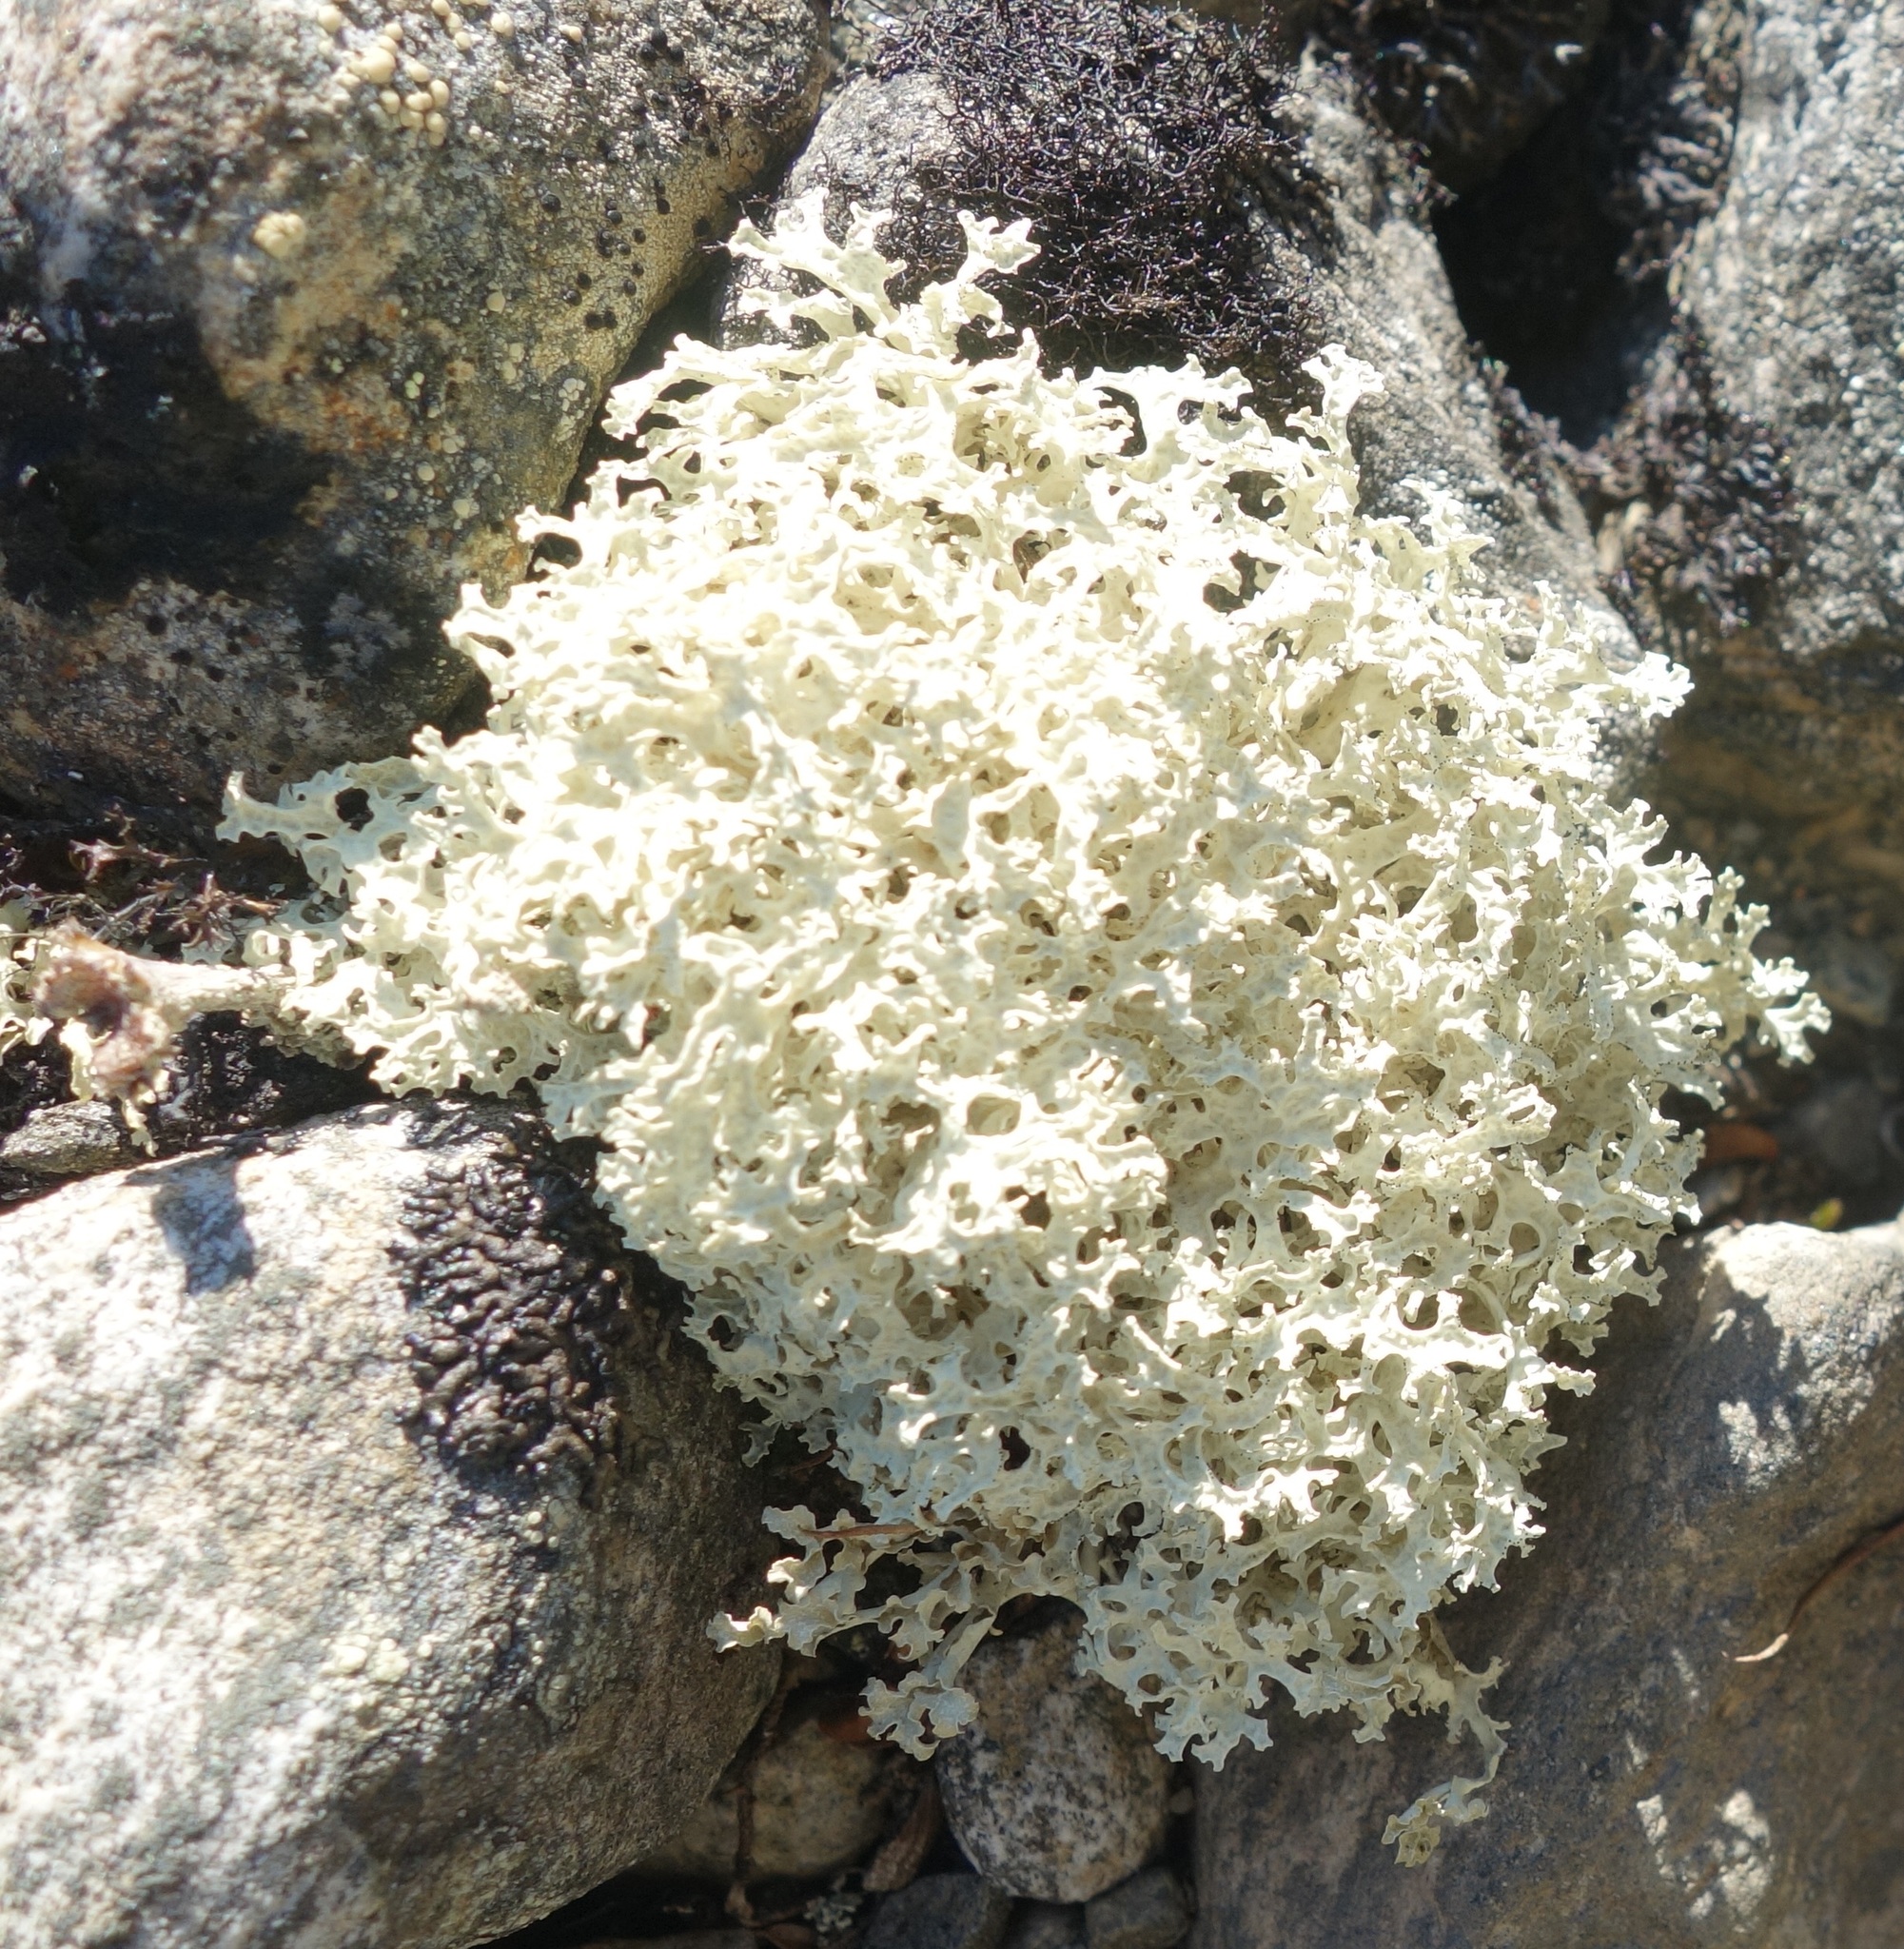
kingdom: Fungi
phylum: Ascomycota
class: Lecanoromycetes
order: Lecanorales
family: Parmeliaceae
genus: Nephromopsis
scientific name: Nephromopsis nivalis
